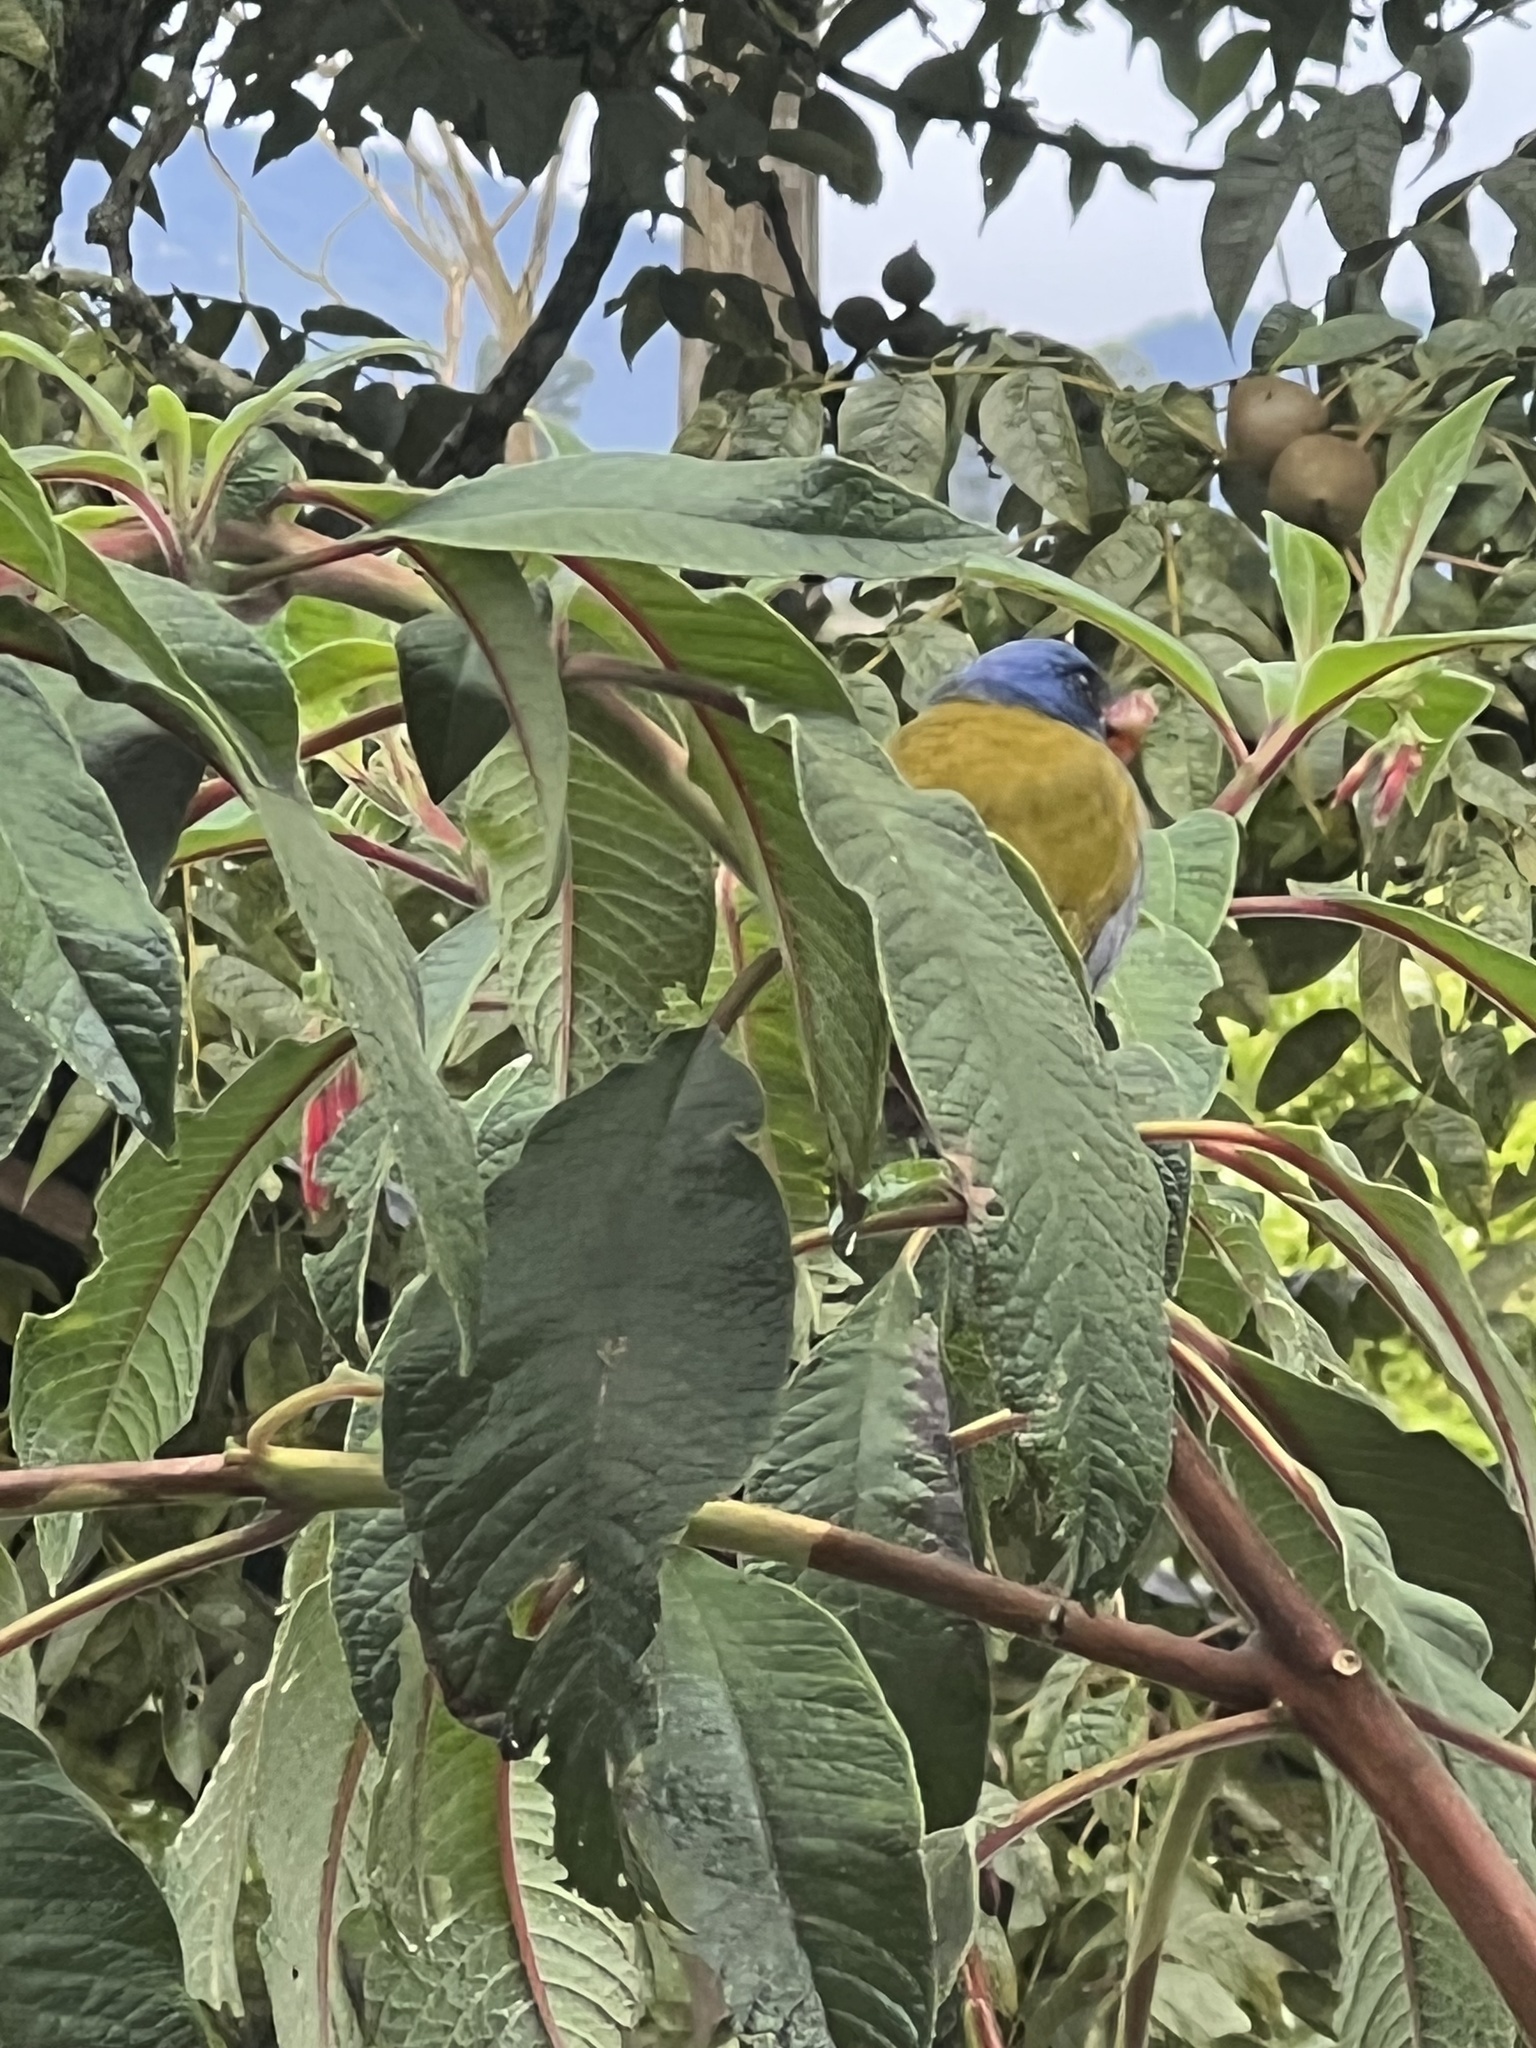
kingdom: Animalia
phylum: Chordata
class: Aves
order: Passeriformes
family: Thraupidae
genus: Sporathraupis
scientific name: Sporathraupis cyanocephala
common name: Blue-capped tanager
